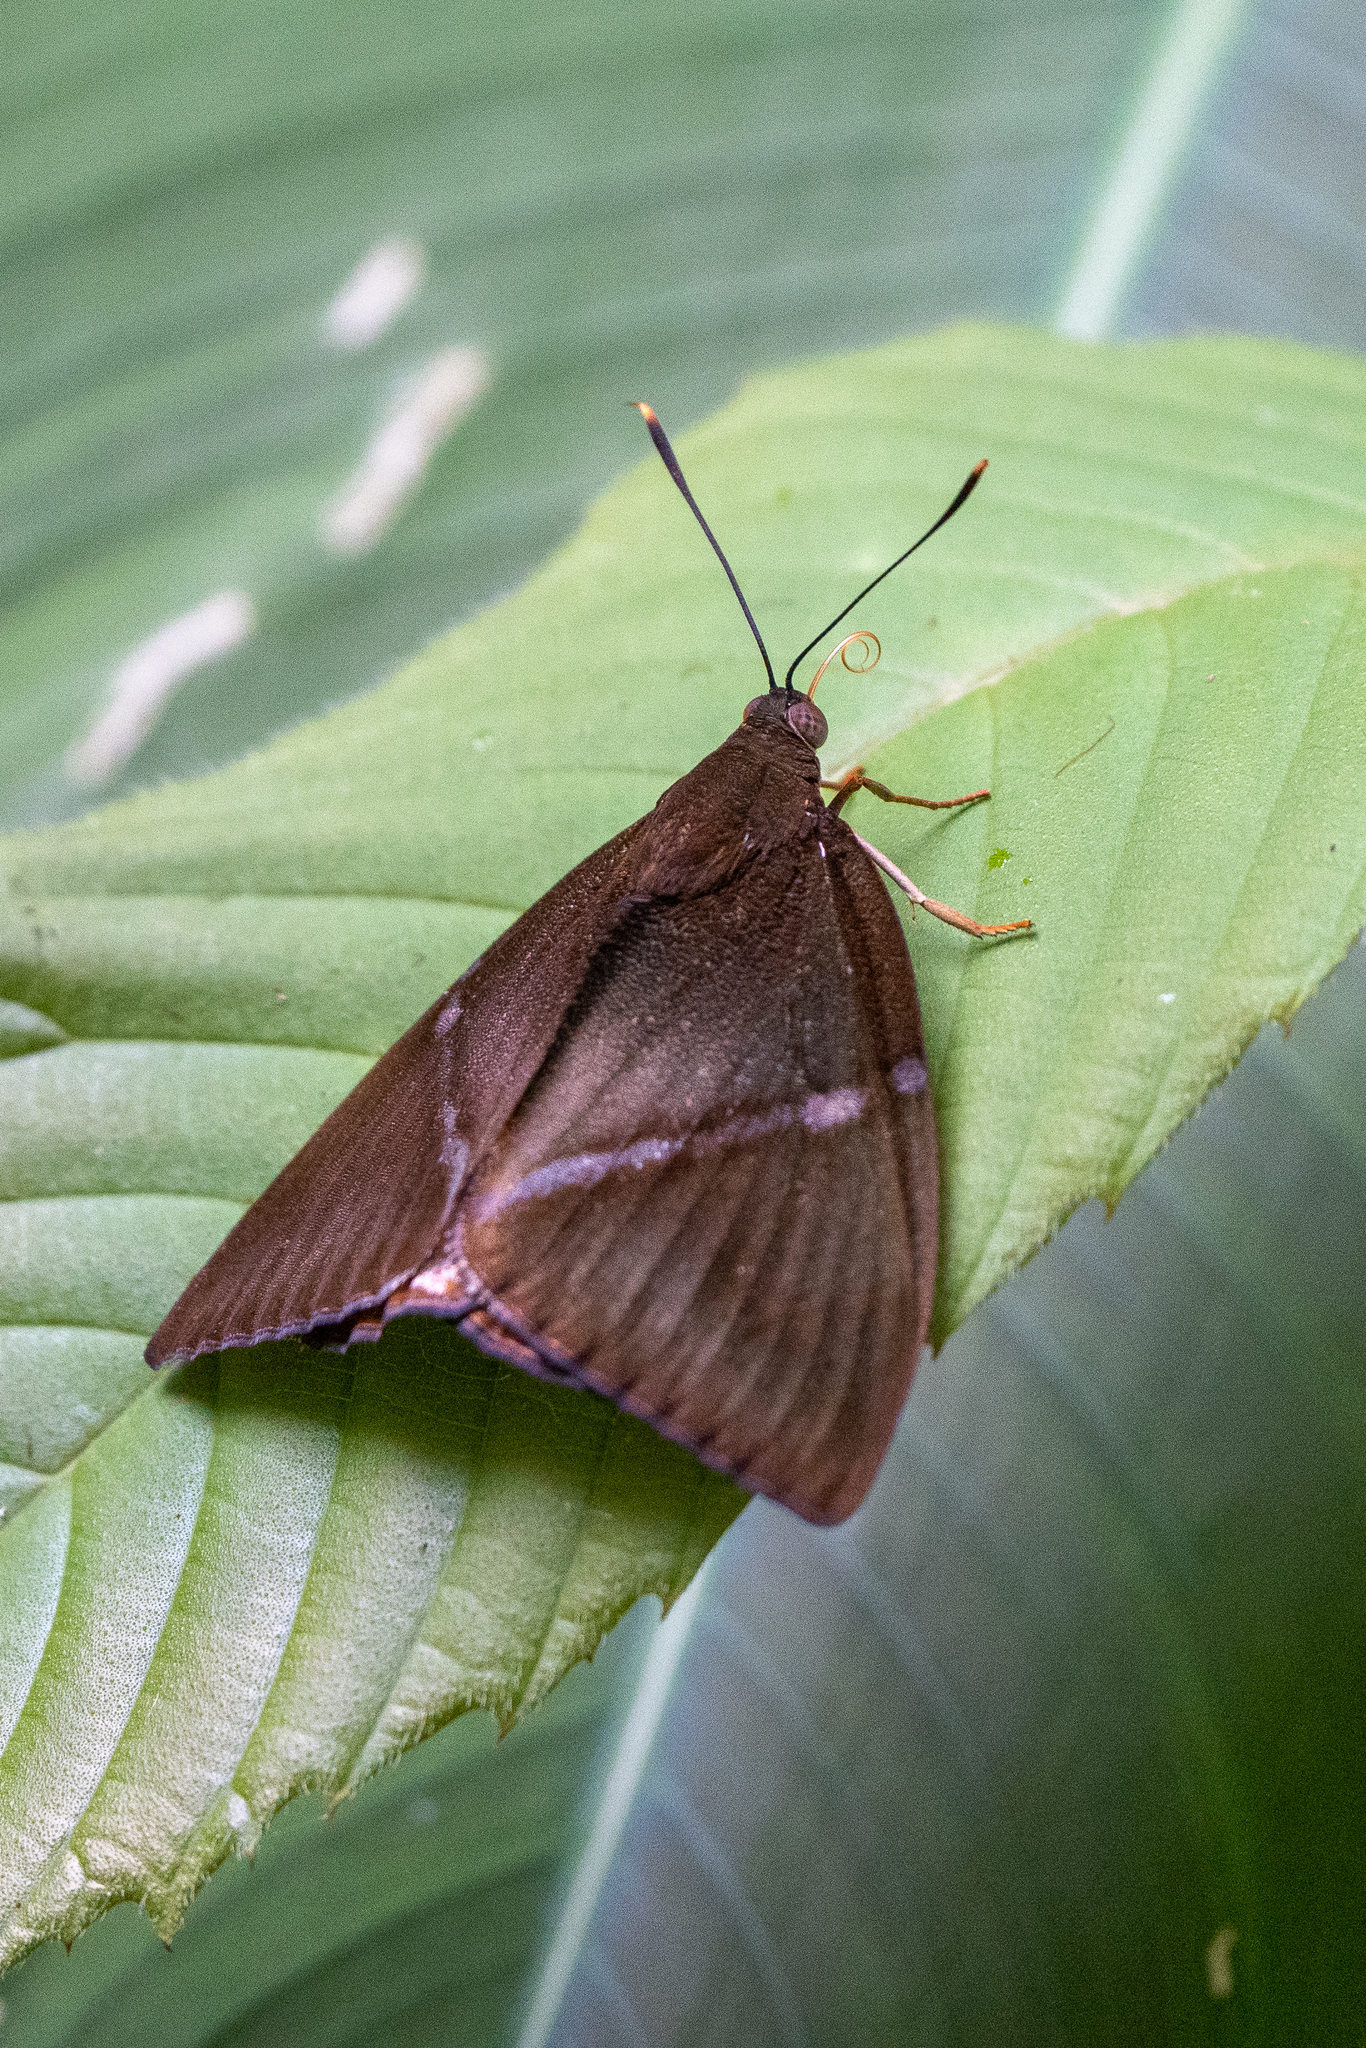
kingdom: Animalia
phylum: Arthropoda
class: Insecta
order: Lepidoptera
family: Castniidae
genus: Castniomera
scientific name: Castniomera atymnius
